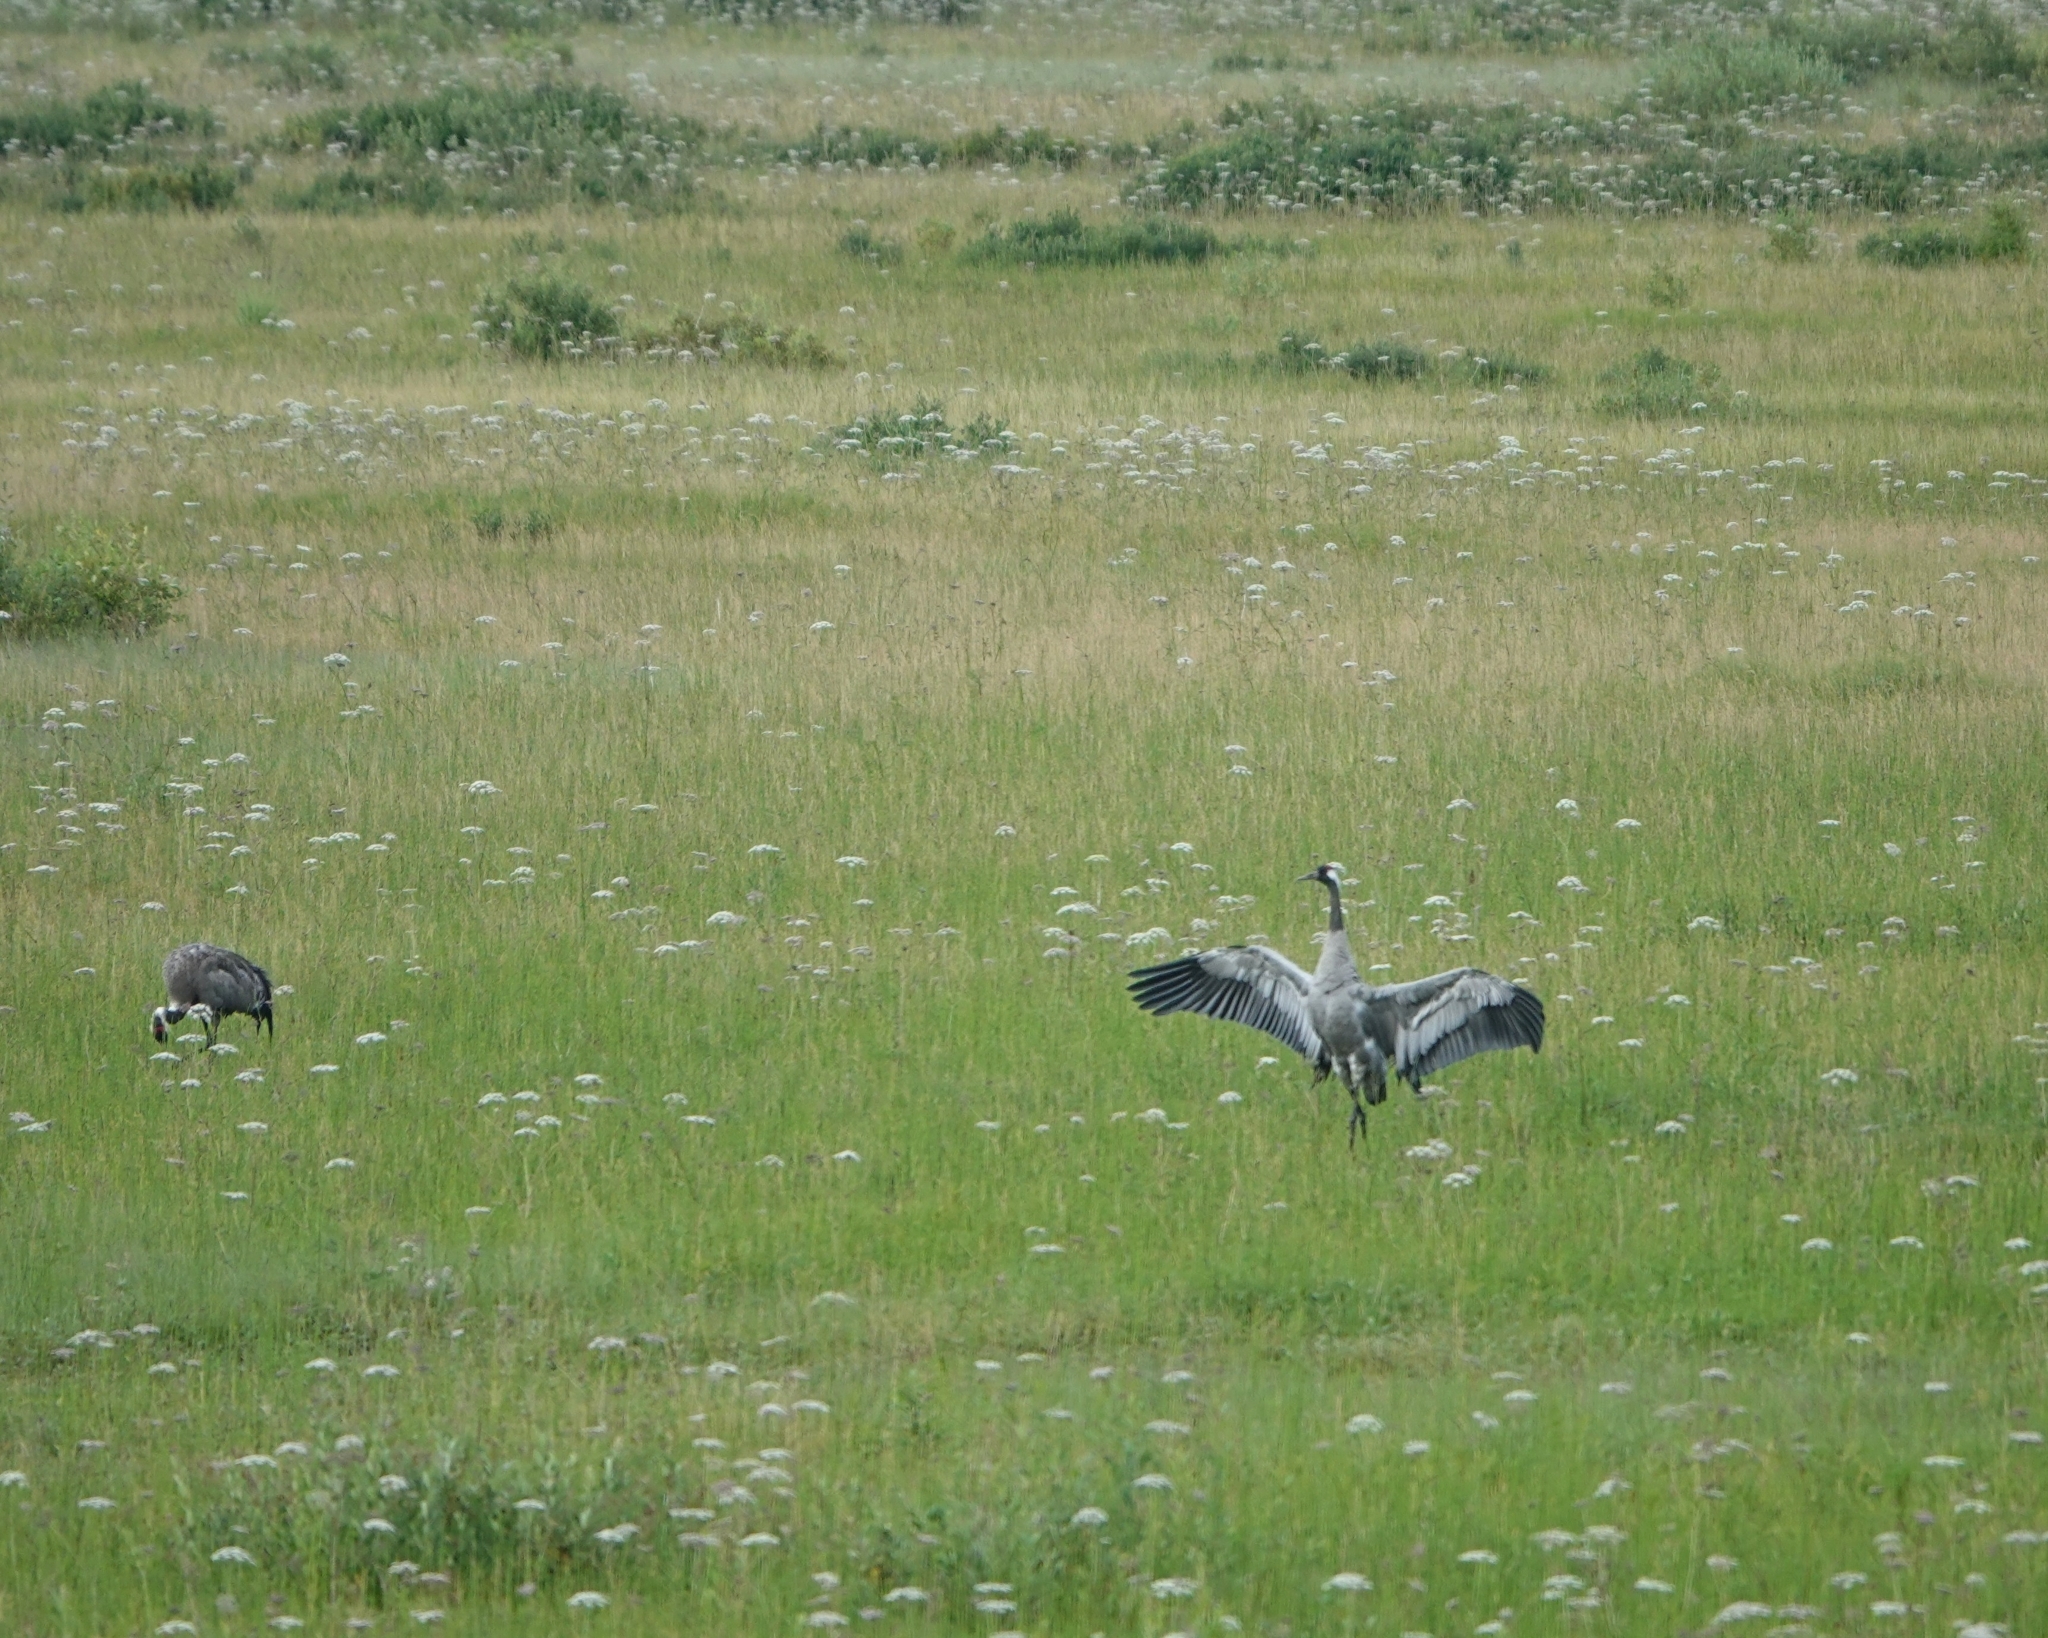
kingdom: Animalia
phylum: Chordata
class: Aves
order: Gruiformes
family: Gruidae
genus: Grus
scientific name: Grus grus
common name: Common crane
